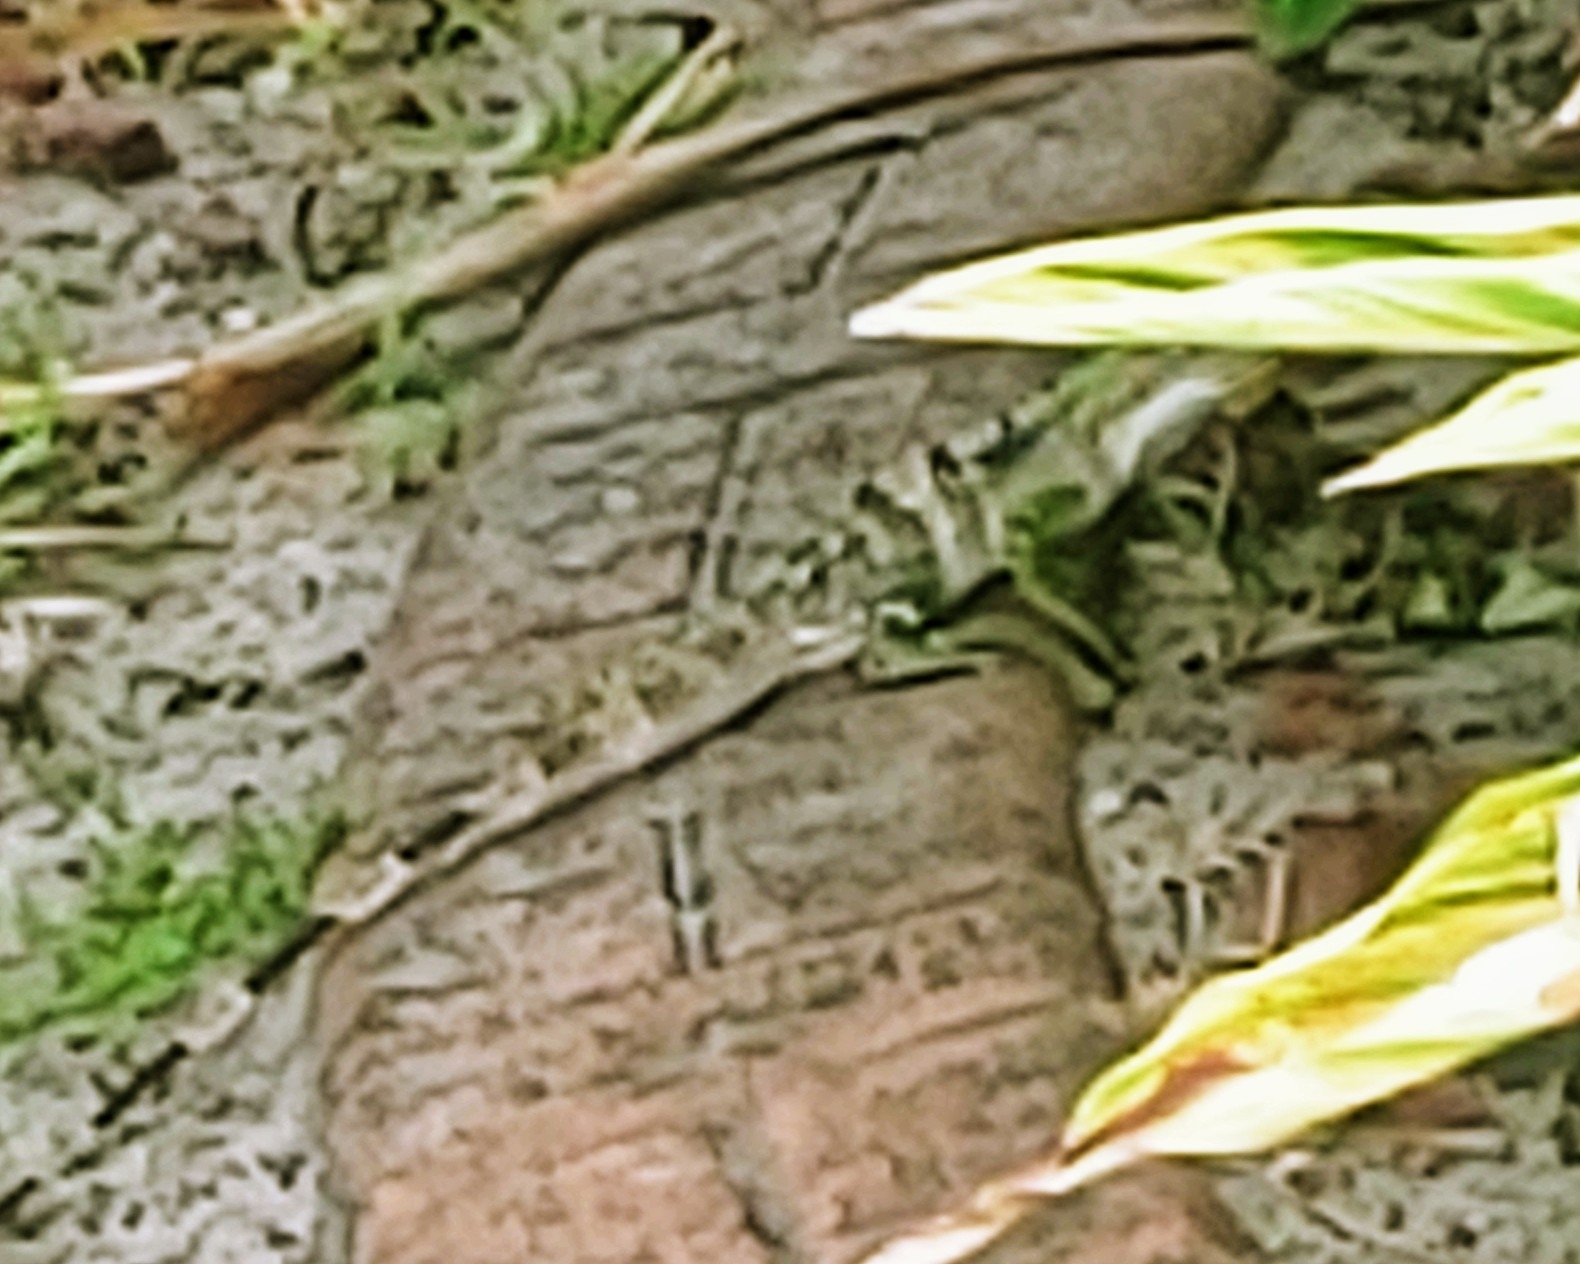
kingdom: Animalia
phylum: Chordata
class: Squamata
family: Iguanidae
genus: Ctenosaura
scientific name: Ctenosaura similis
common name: Black spiny-tailed iguana
